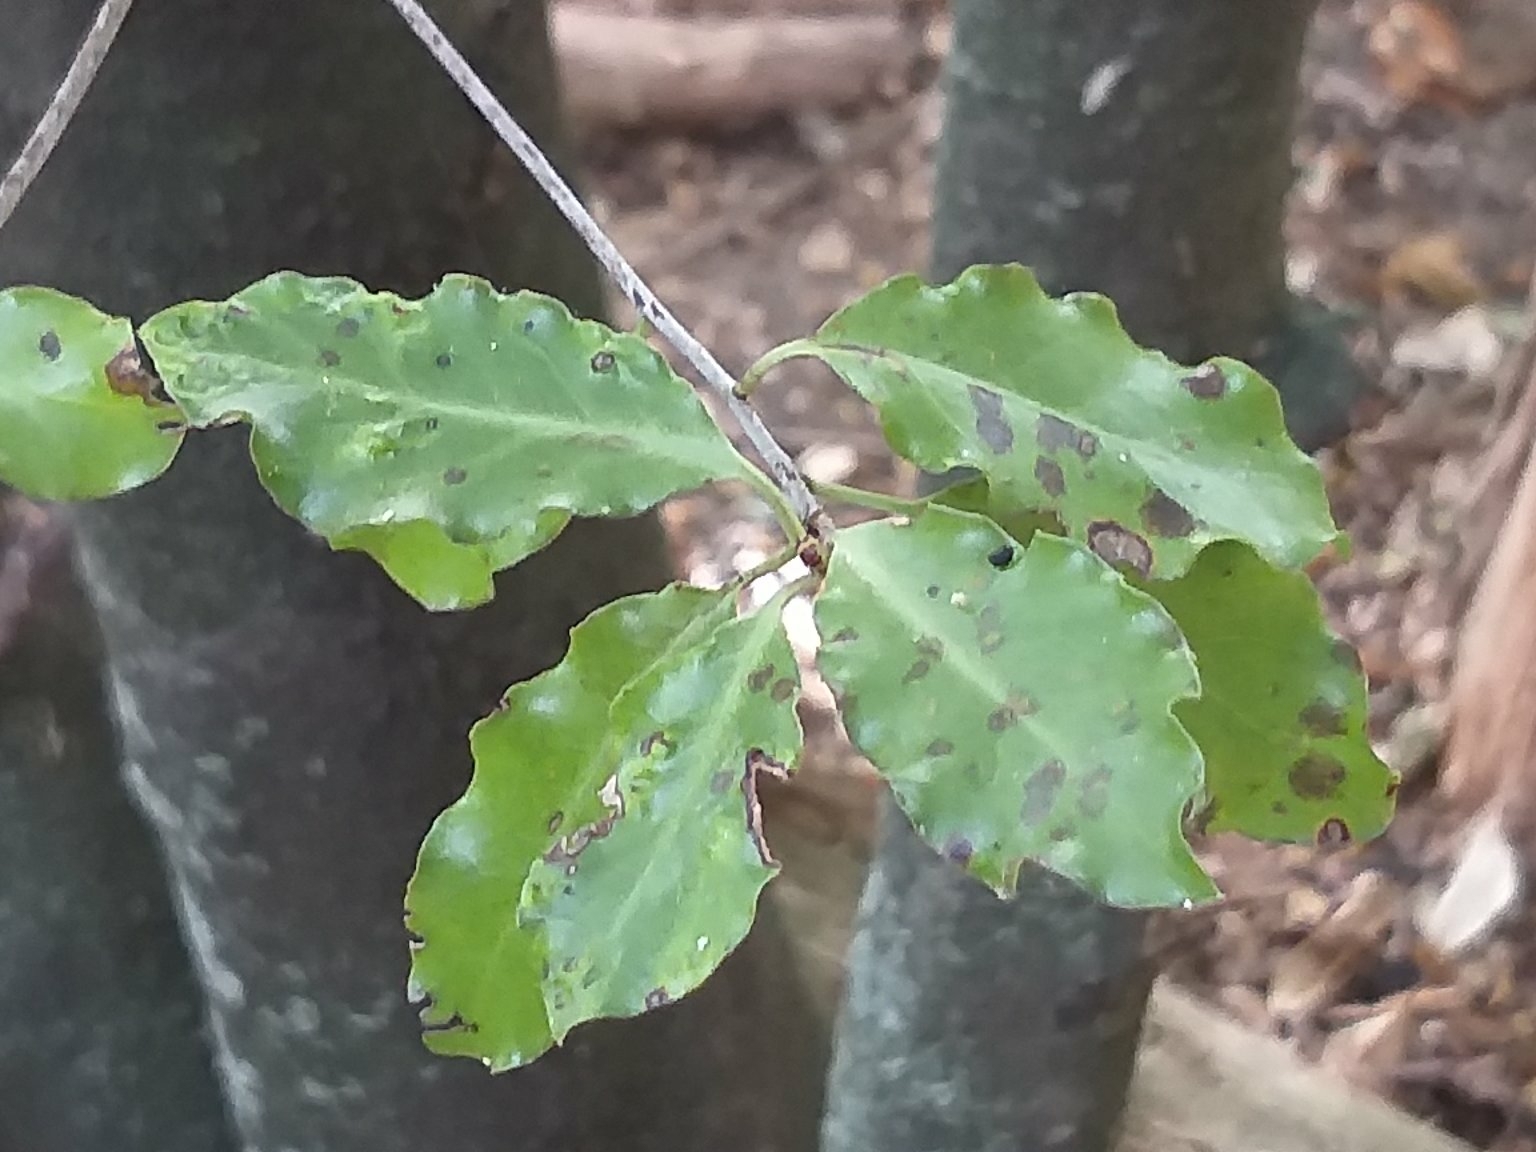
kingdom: Plantae
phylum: Tracheophyta
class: Magnoliopsida
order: Apiales
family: Pittosporaceae
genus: Pittosporum
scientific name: Pittosporum tenuifolium
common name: Kohuhu
